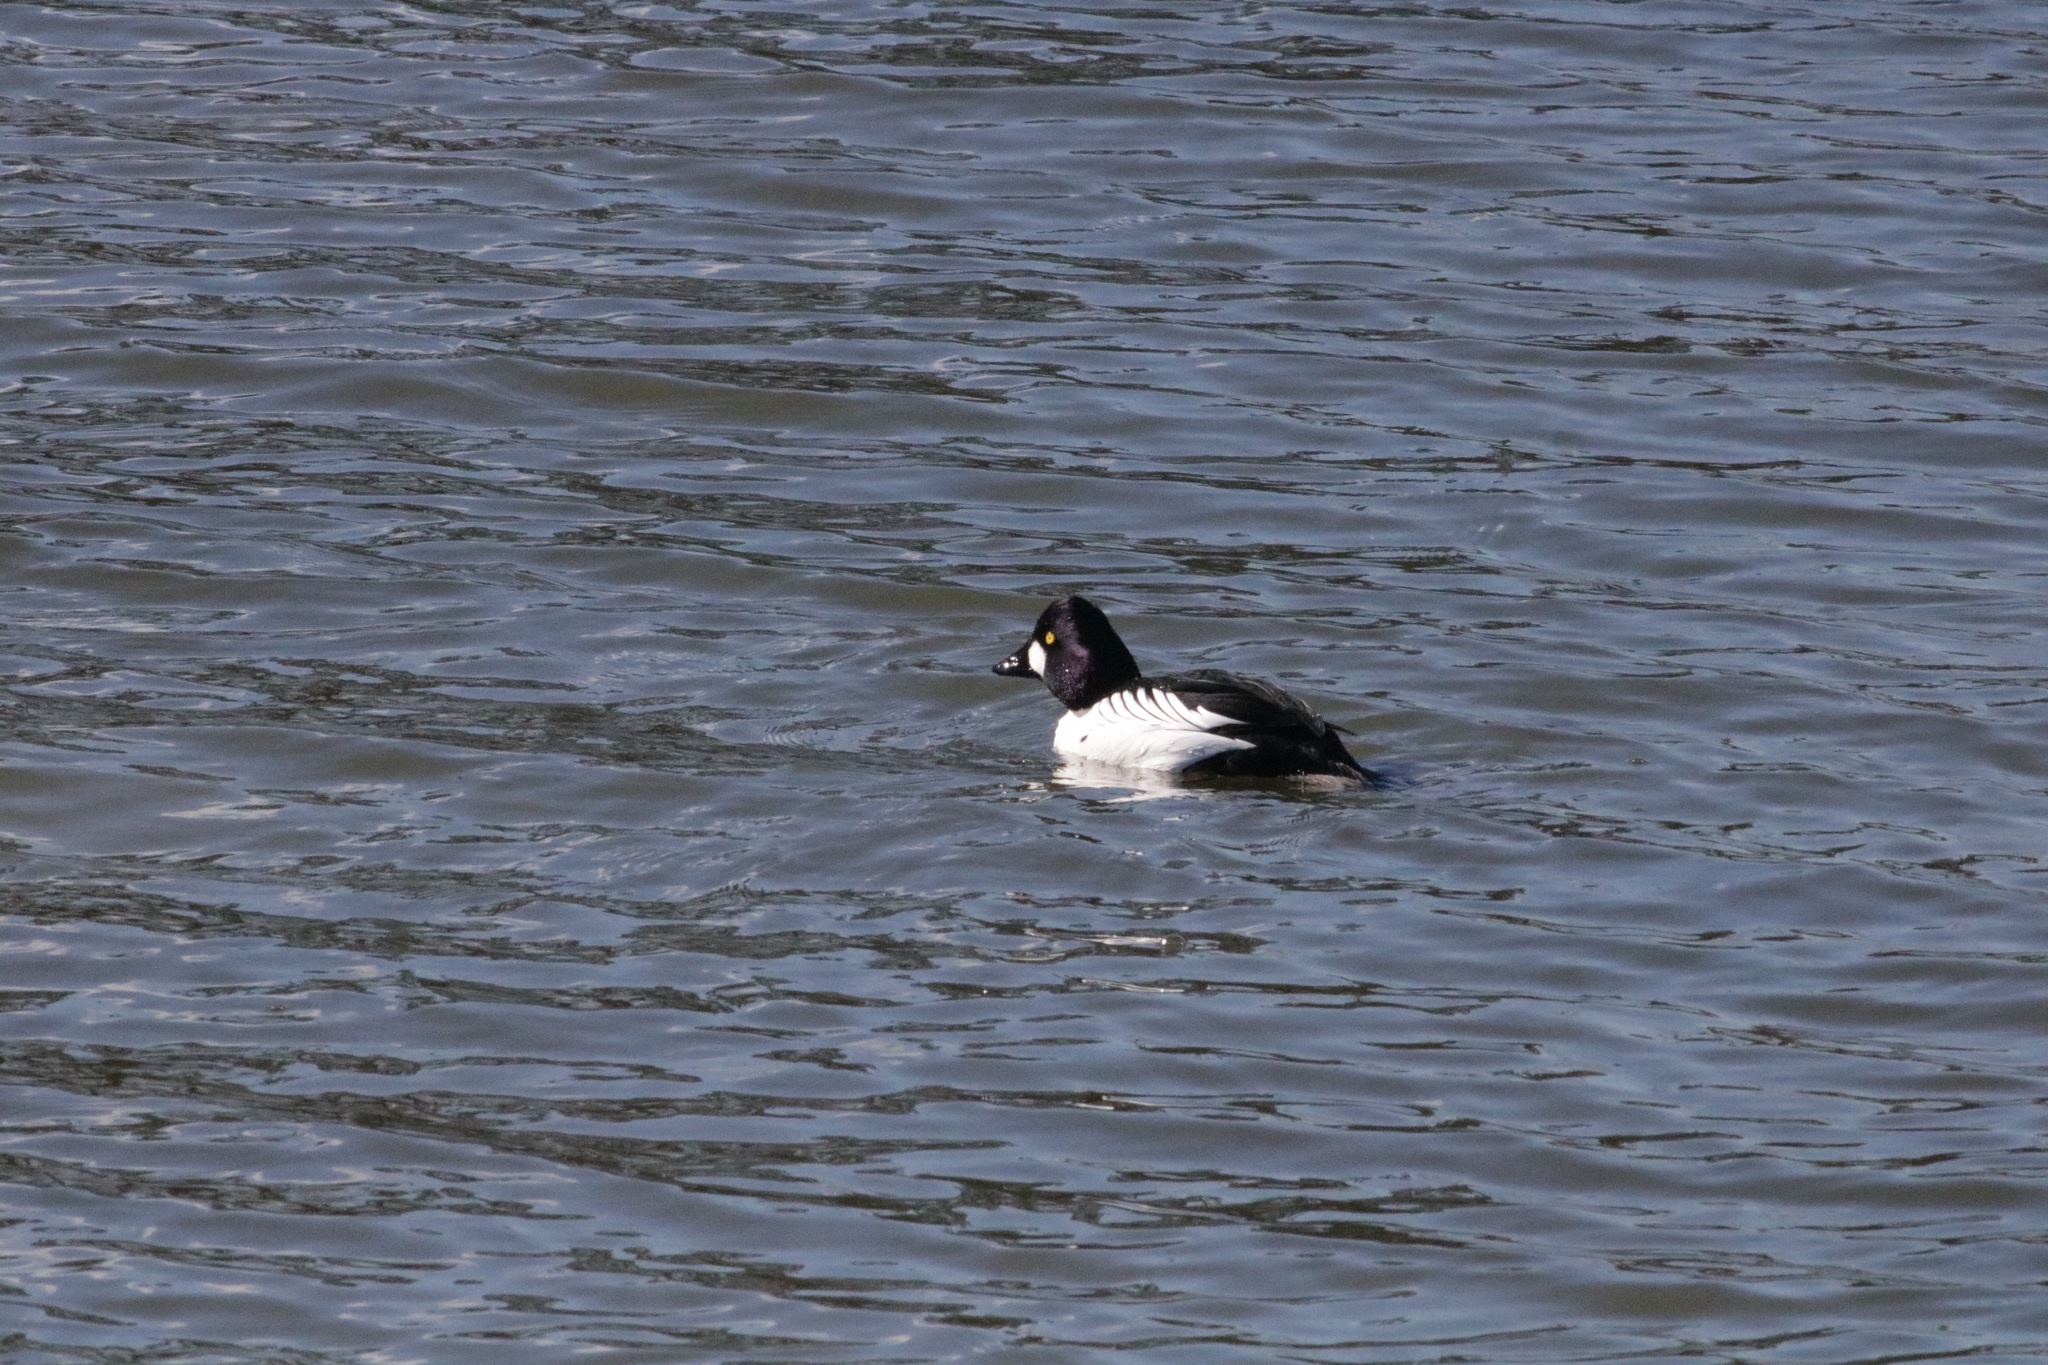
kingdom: Animalia
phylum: Chordata
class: Aves
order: Anseriformes
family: Anatidae
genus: Bucephala
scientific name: Bucephala clangula
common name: Common goldeneye
